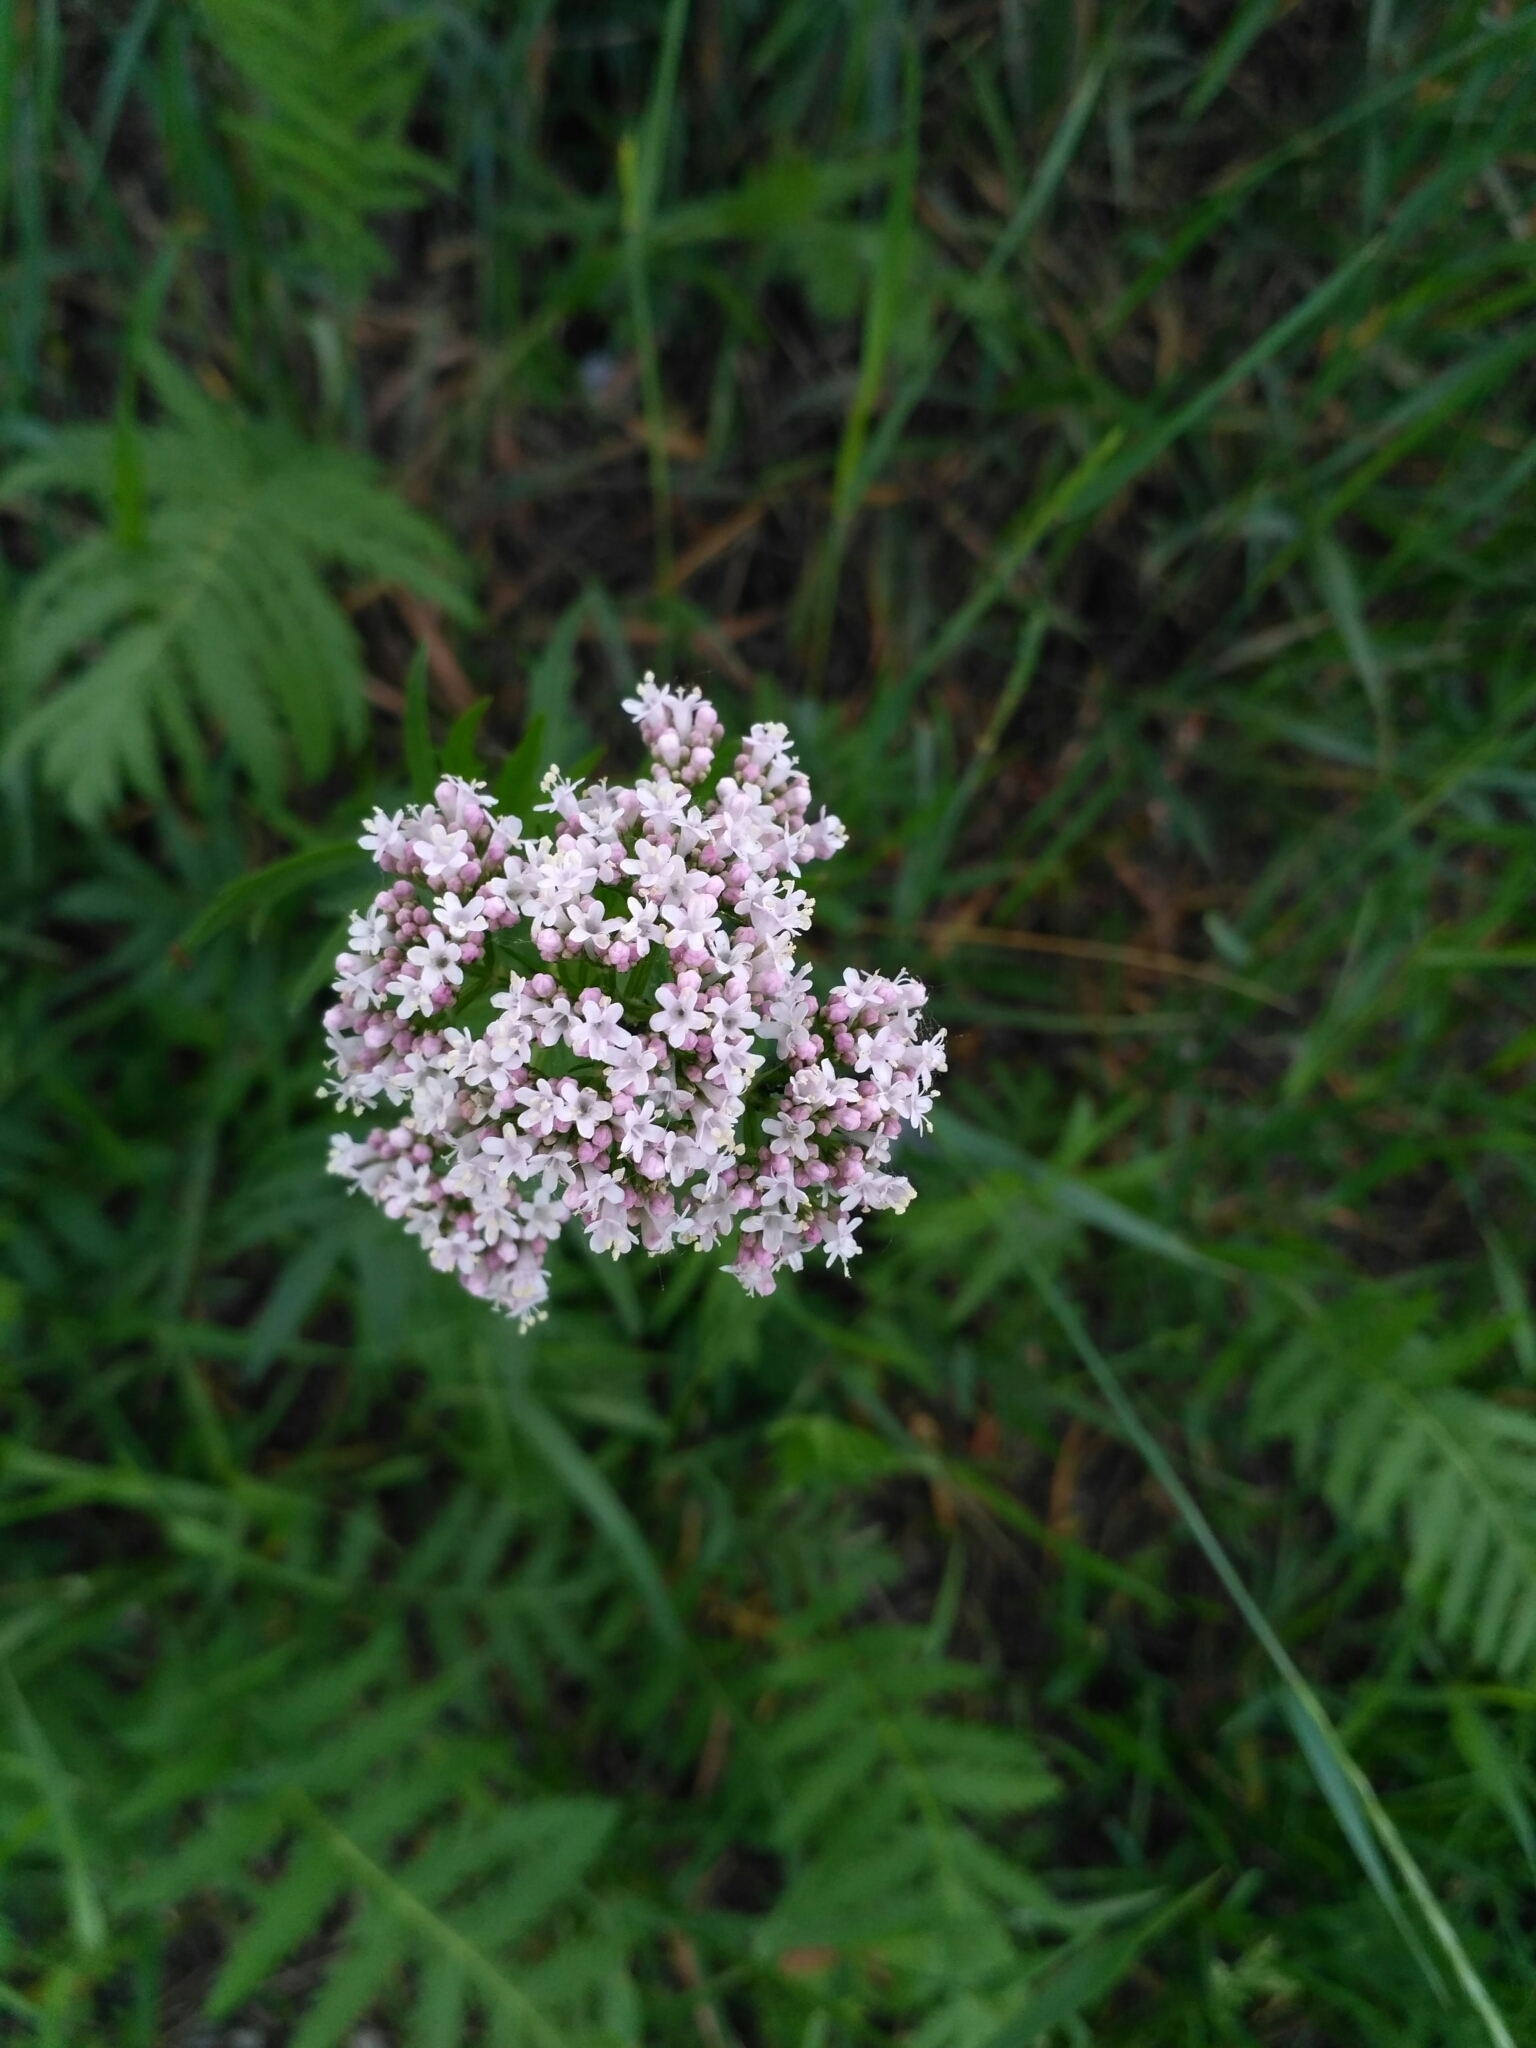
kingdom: Plantae
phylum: Tracheophyta
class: Magnoliopsida
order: Dipsacales
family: Caprifoliaceae
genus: Valeriana
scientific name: Valeriana officinalis
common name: Common valerian
